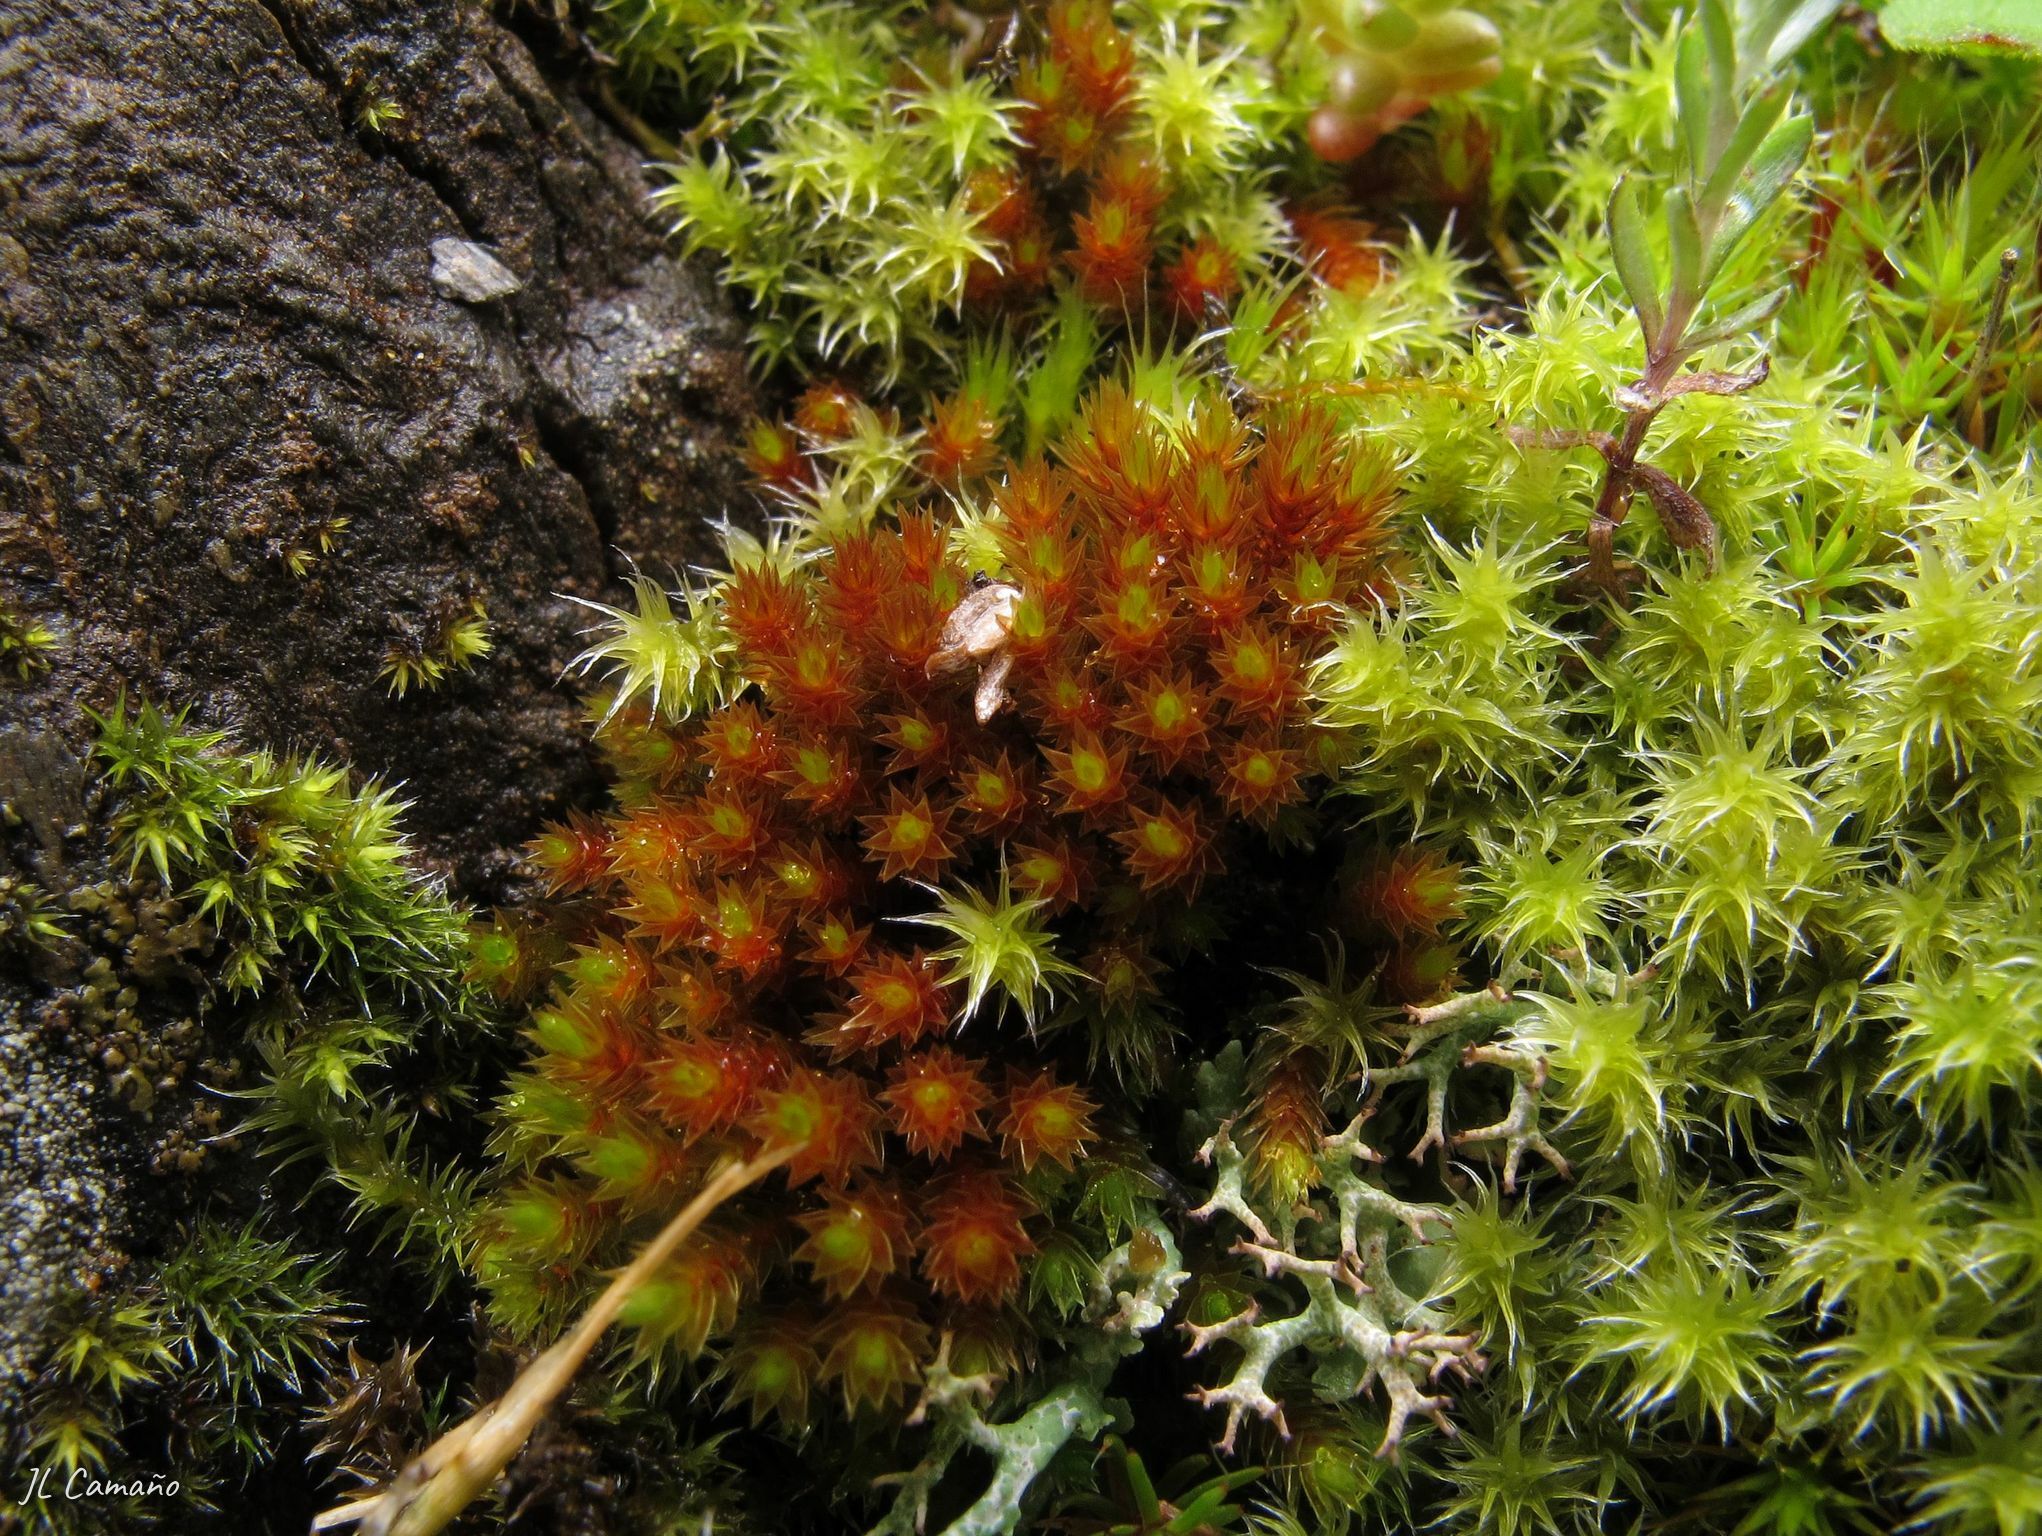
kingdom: Plantae
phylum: Bryophyta
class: Bryopsida
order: Bryales
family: Bryaceae
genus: Imbribryum
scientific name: Imbribryum alpinum
